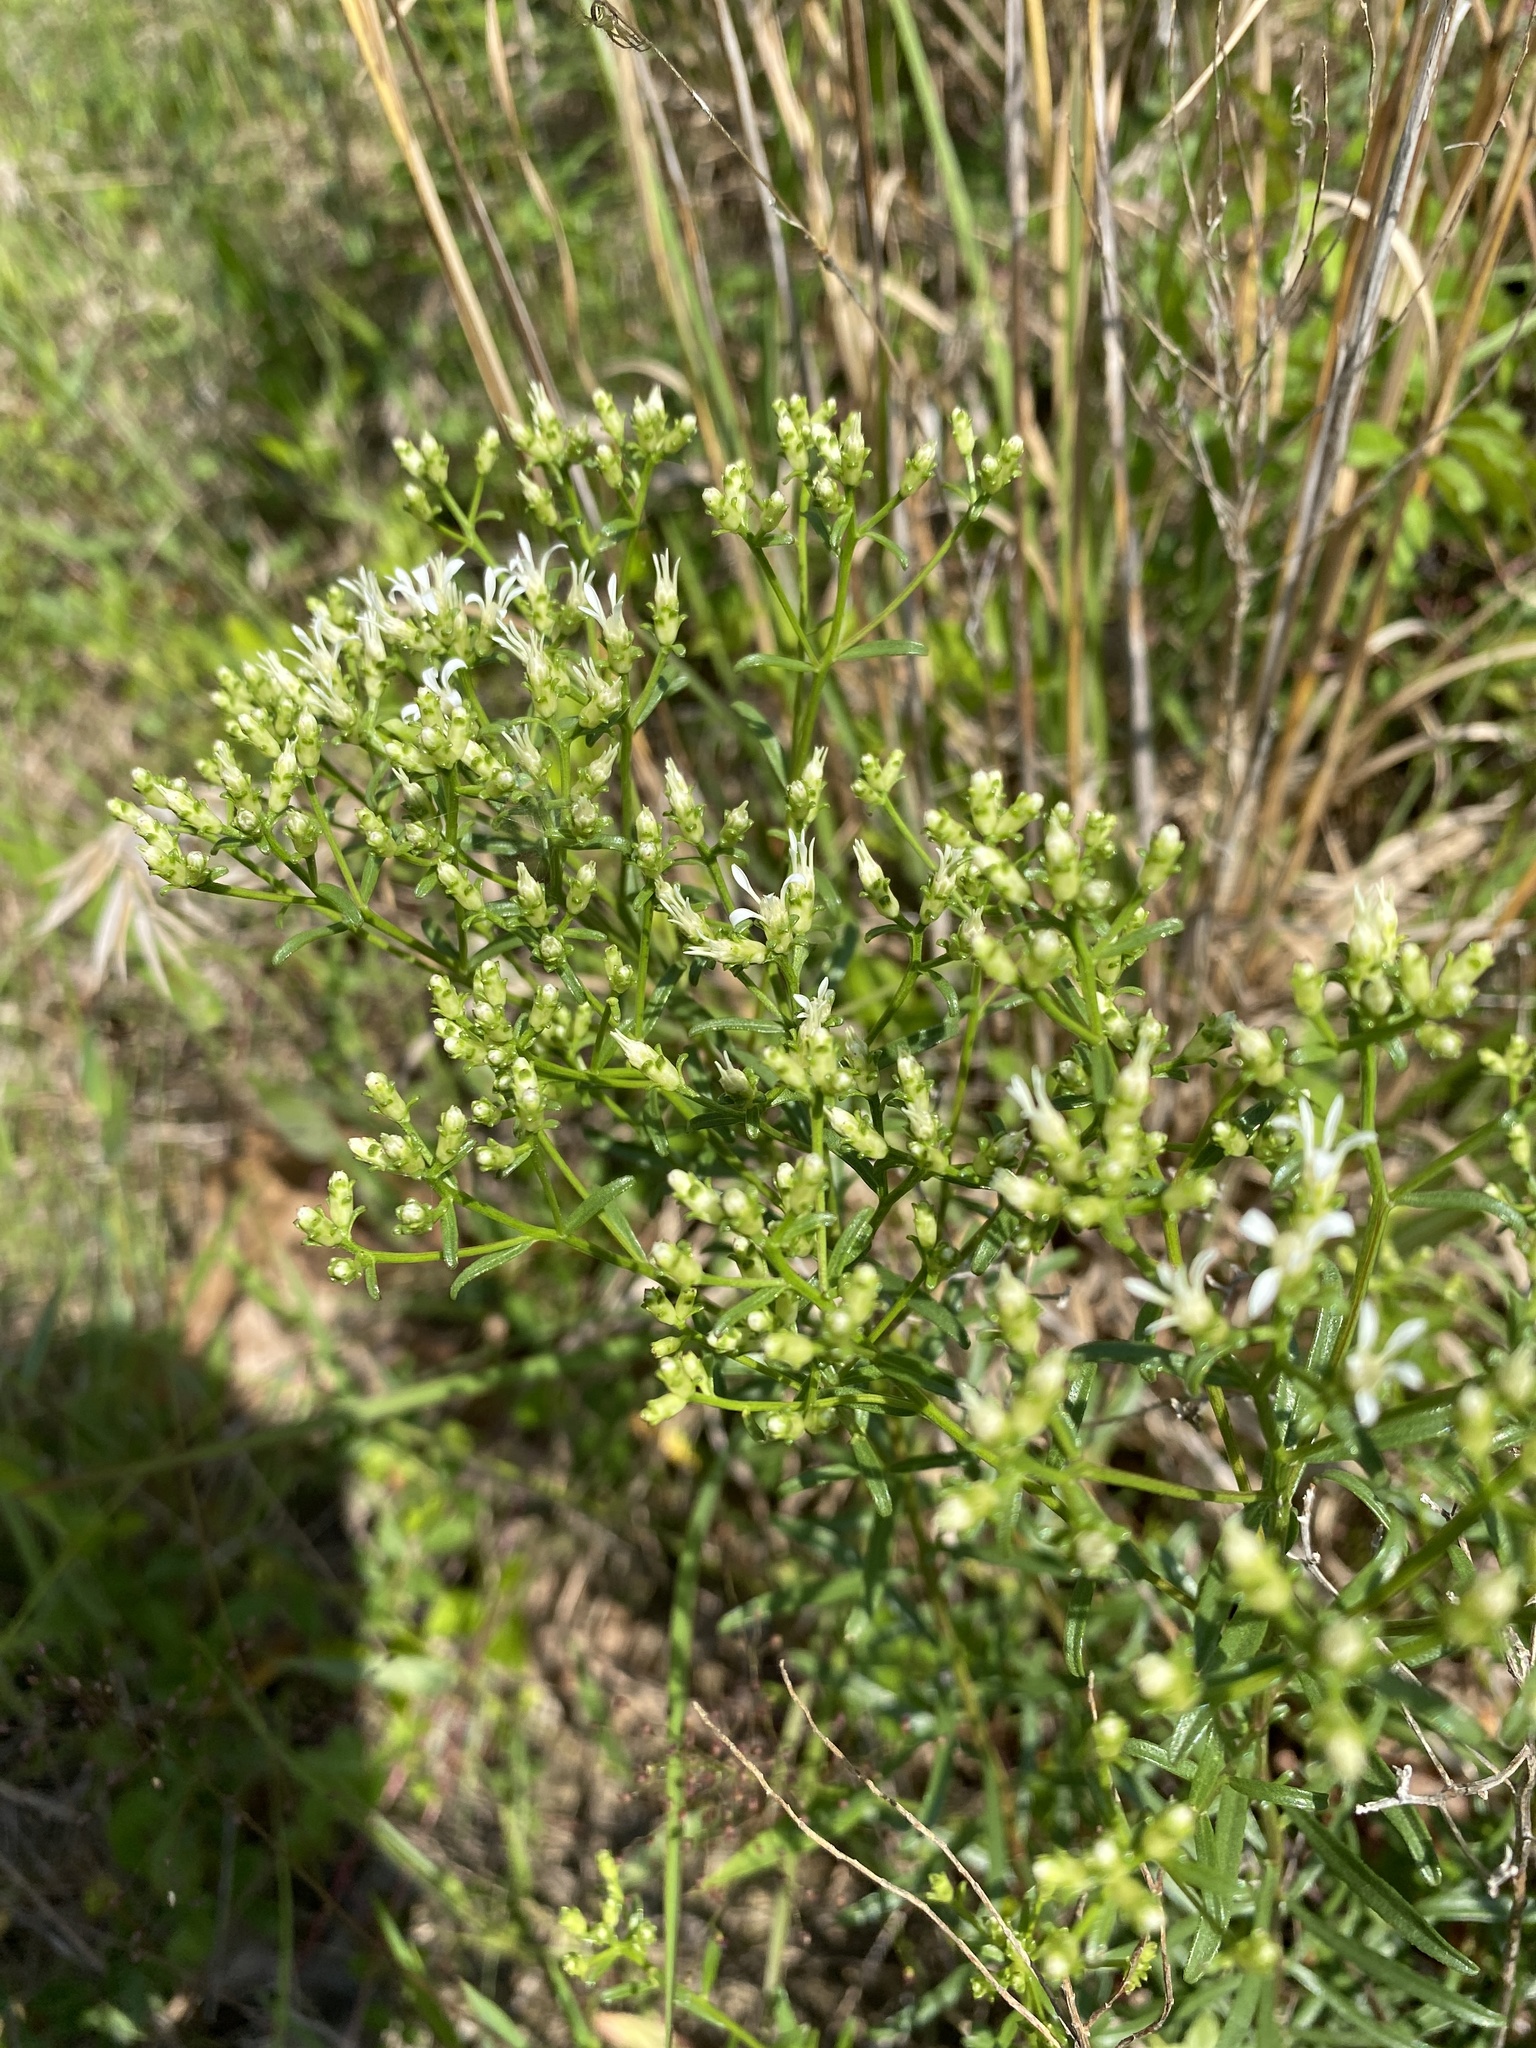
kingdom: Plantae
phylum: Tracheophyta
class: Magnoliopsida
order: Asterales
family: Asteraceae
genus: Sericocarpus
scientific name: Sericocarpus linifolius
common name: Narrow-leaf aster
